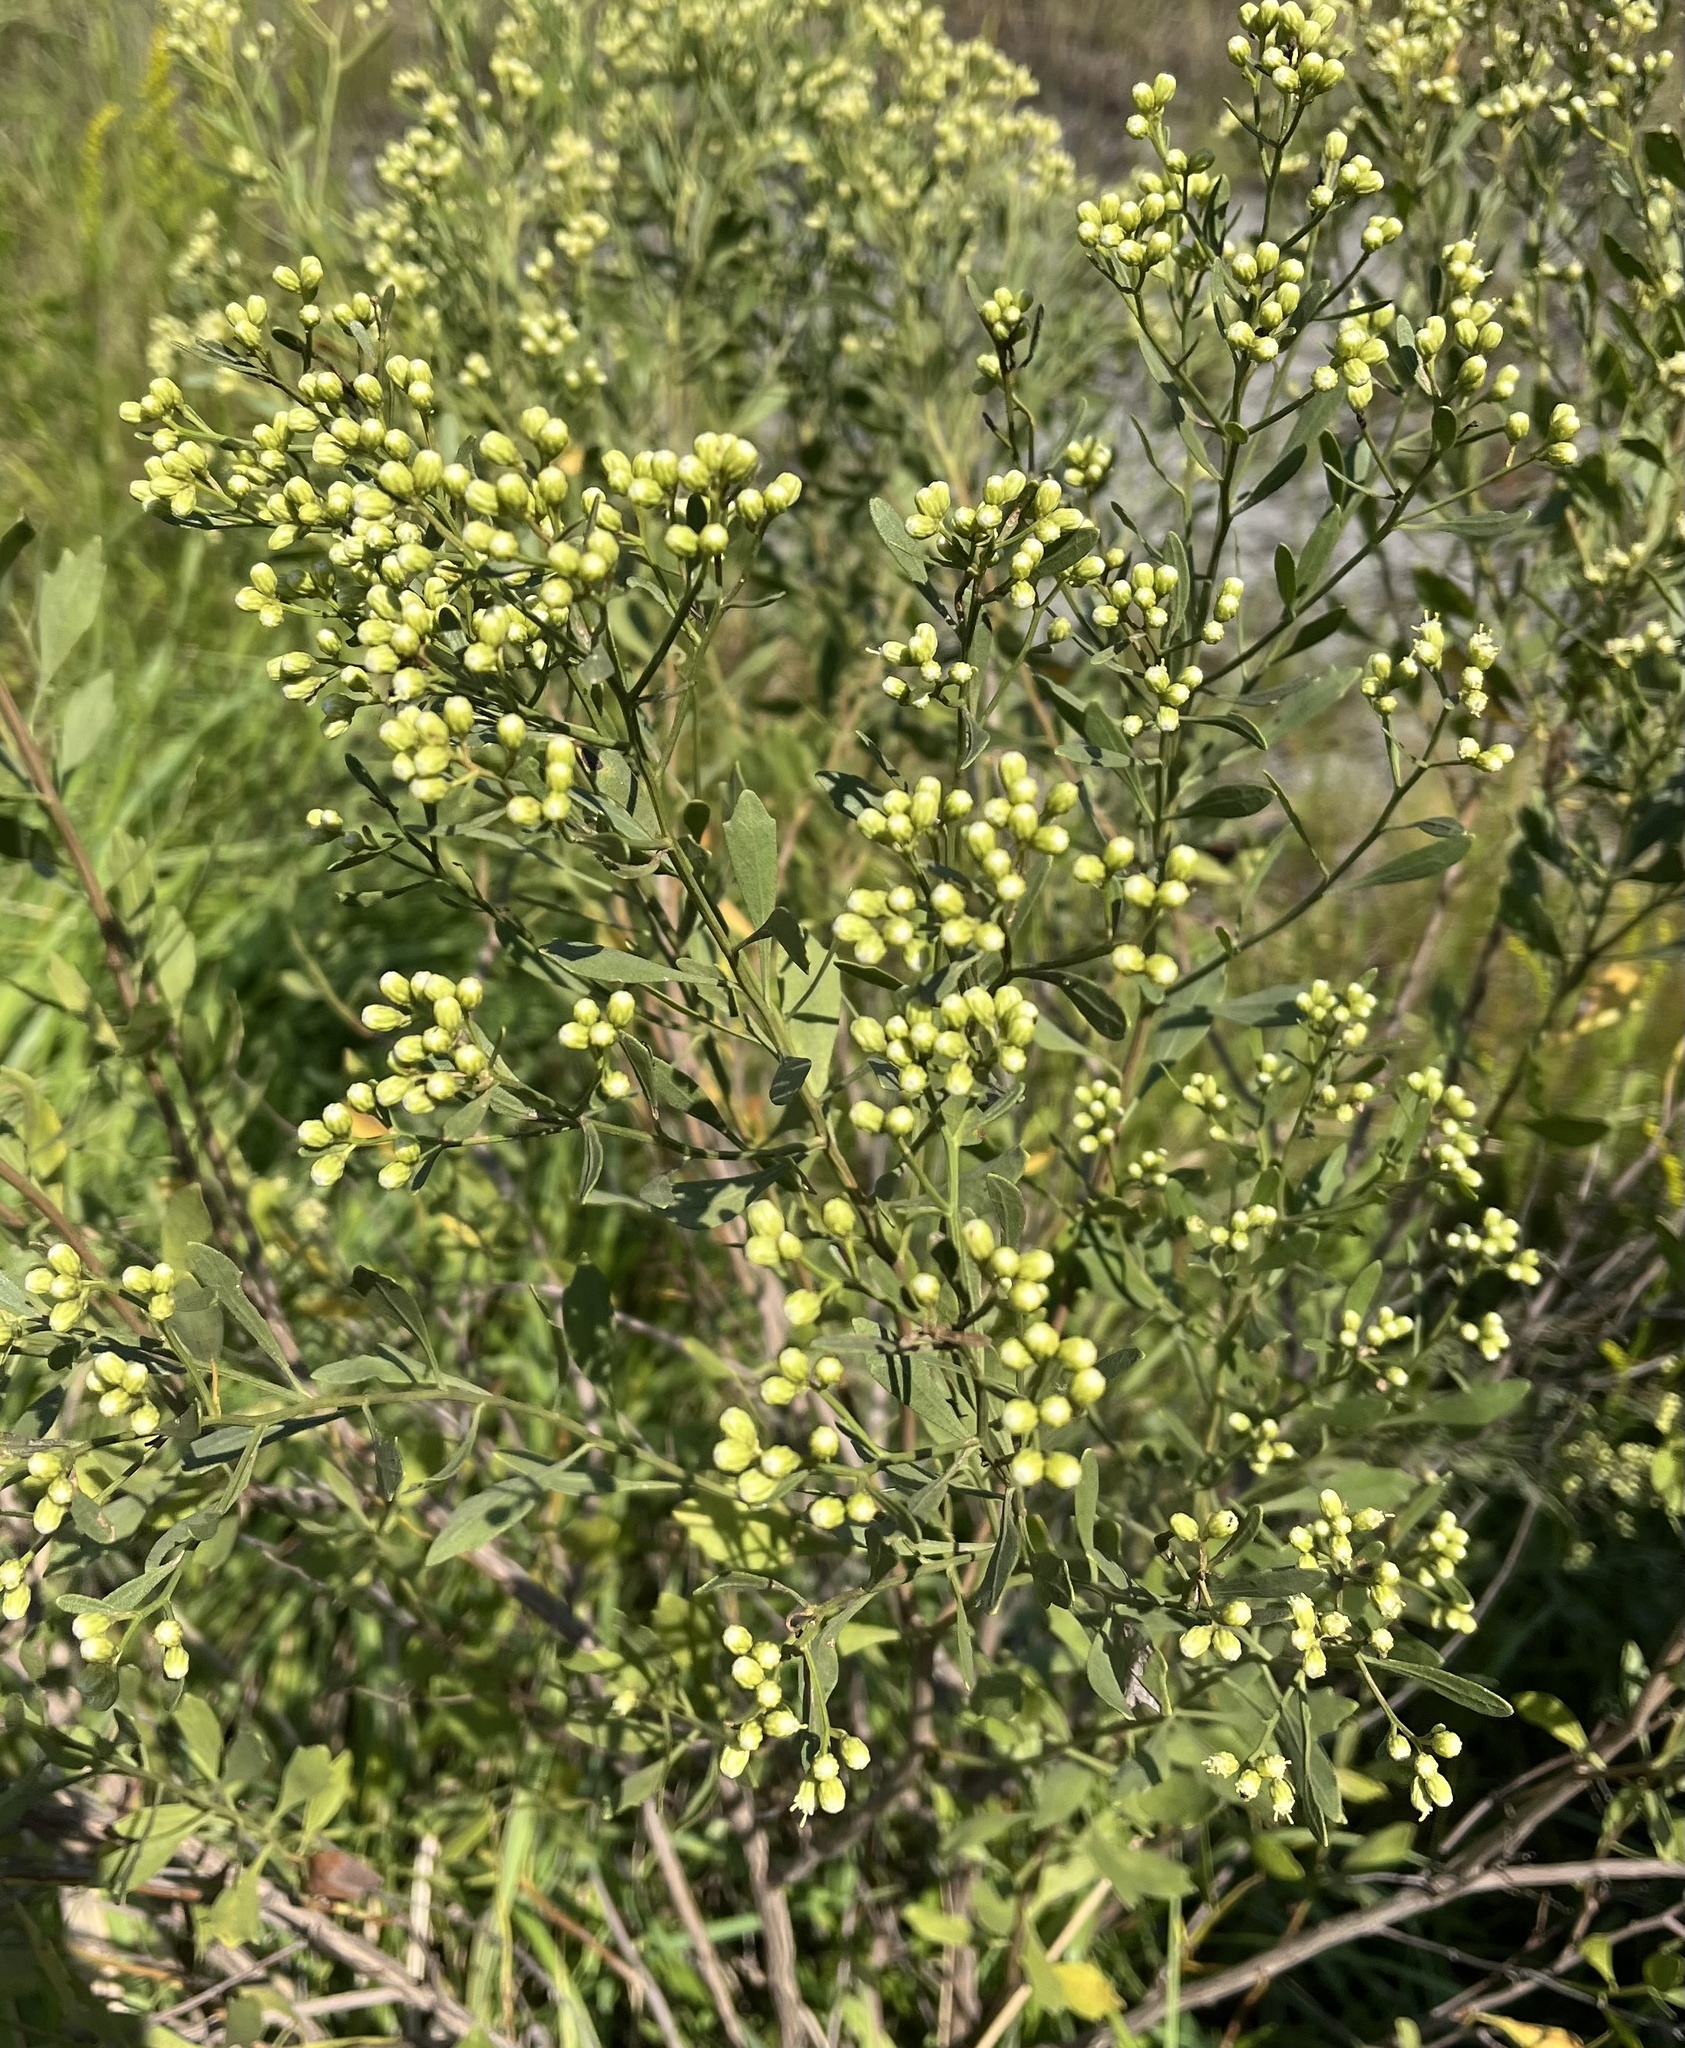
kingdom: Plantae
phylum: Tracheophyta
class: Magnoliopsida
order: Asterales
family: Asteraceae
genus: Baccharis
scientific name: Baccharis halimifolia
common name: Eastern baccharis
